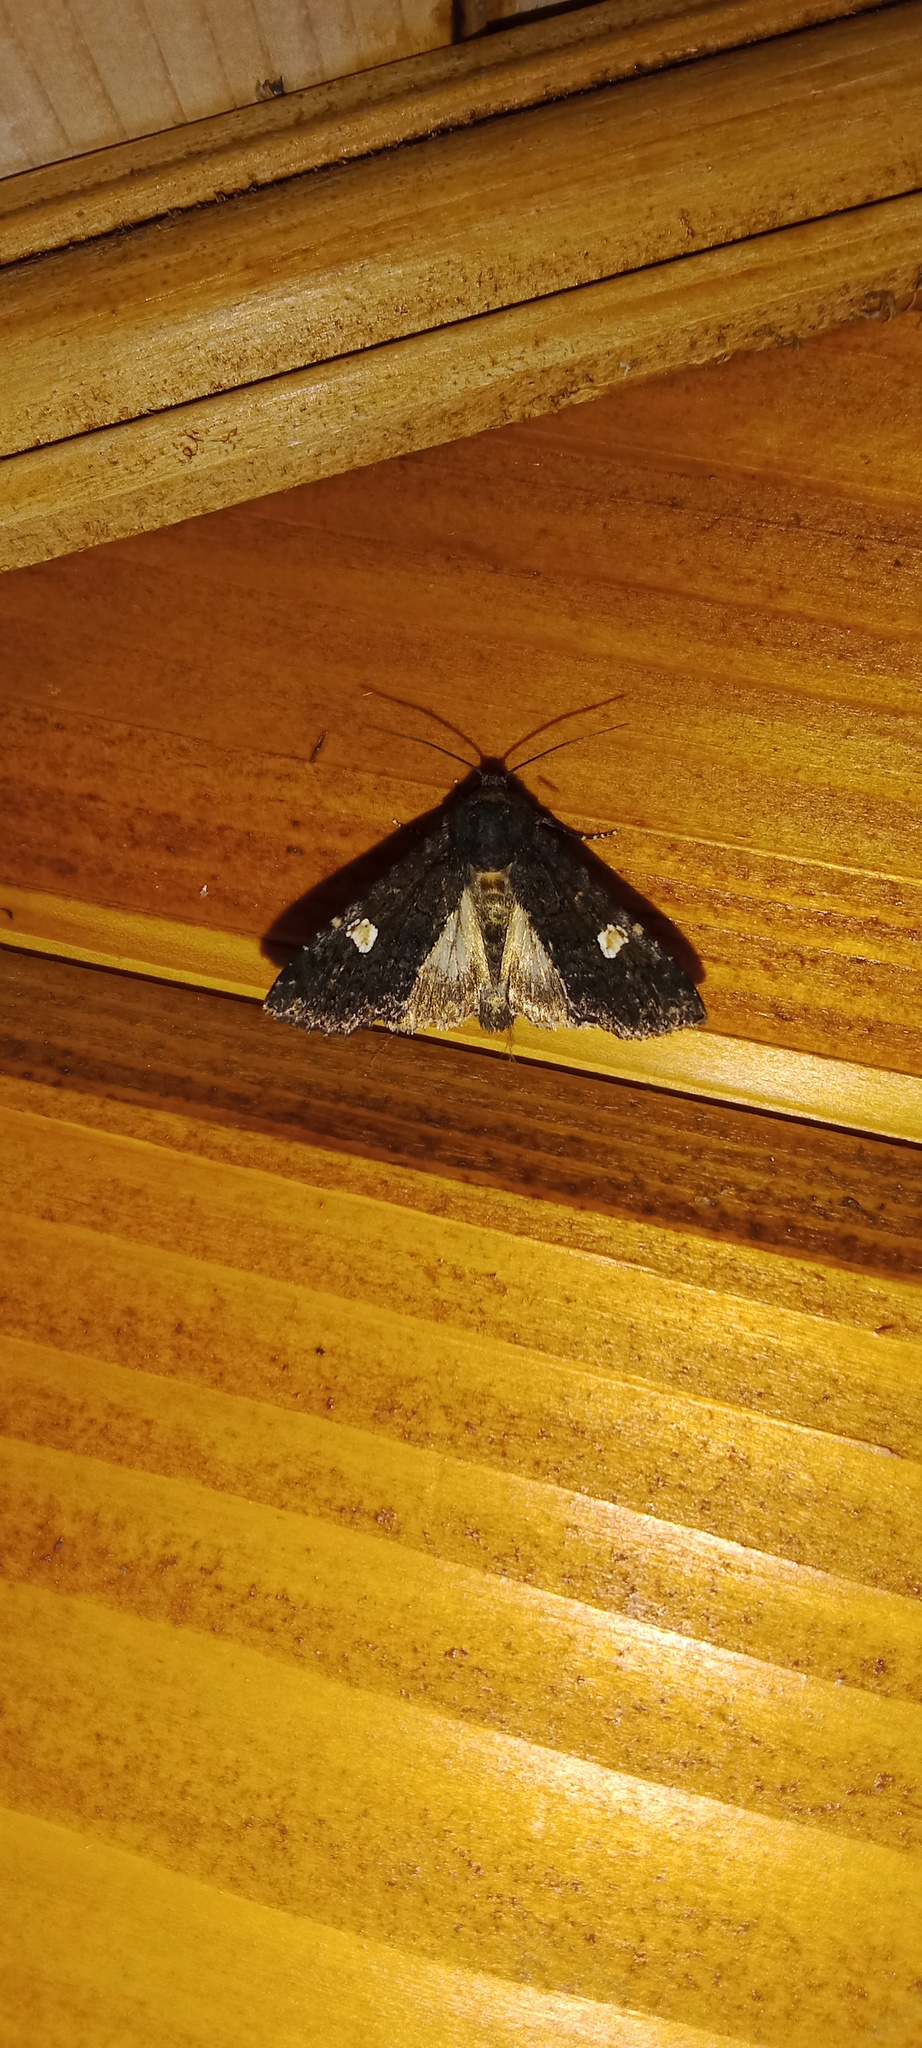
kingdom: Animalia
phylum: Arthropoda
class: Insecta
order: Lepidoptera
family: Noctuidae
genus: Melanchra
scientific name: Melanchra persicariae
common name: Dot moth
